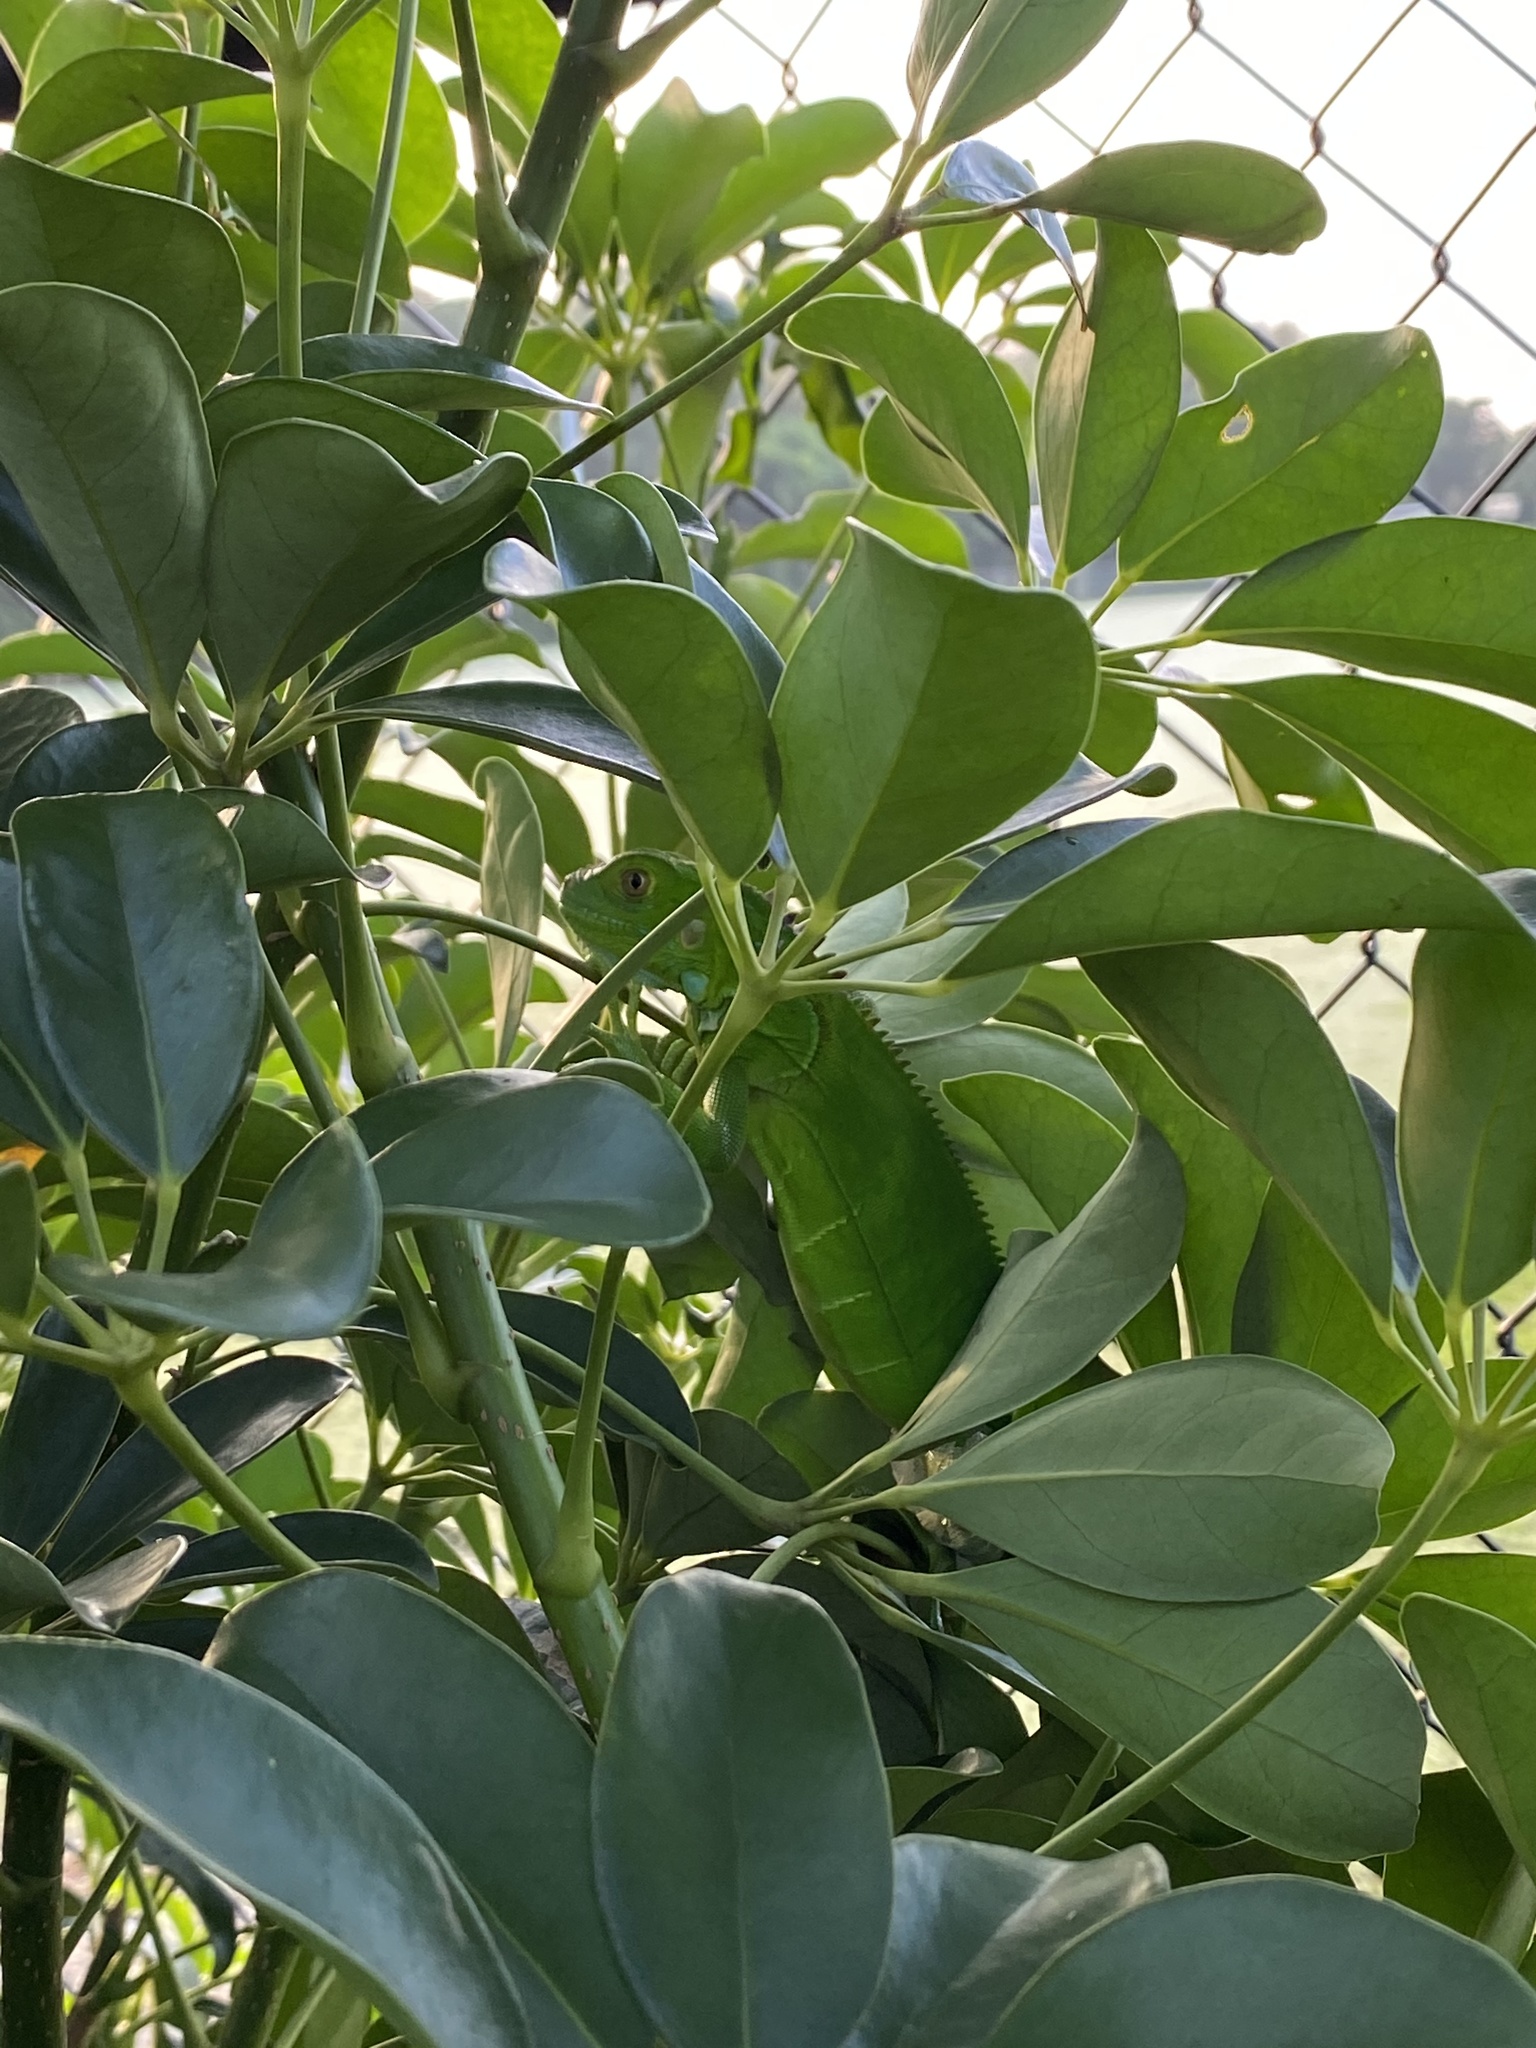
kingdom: Animalia
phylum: Chordata
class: Squamata
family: Iguanidae
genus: Iguana
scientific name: Iguana iguana
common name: Green iguana
